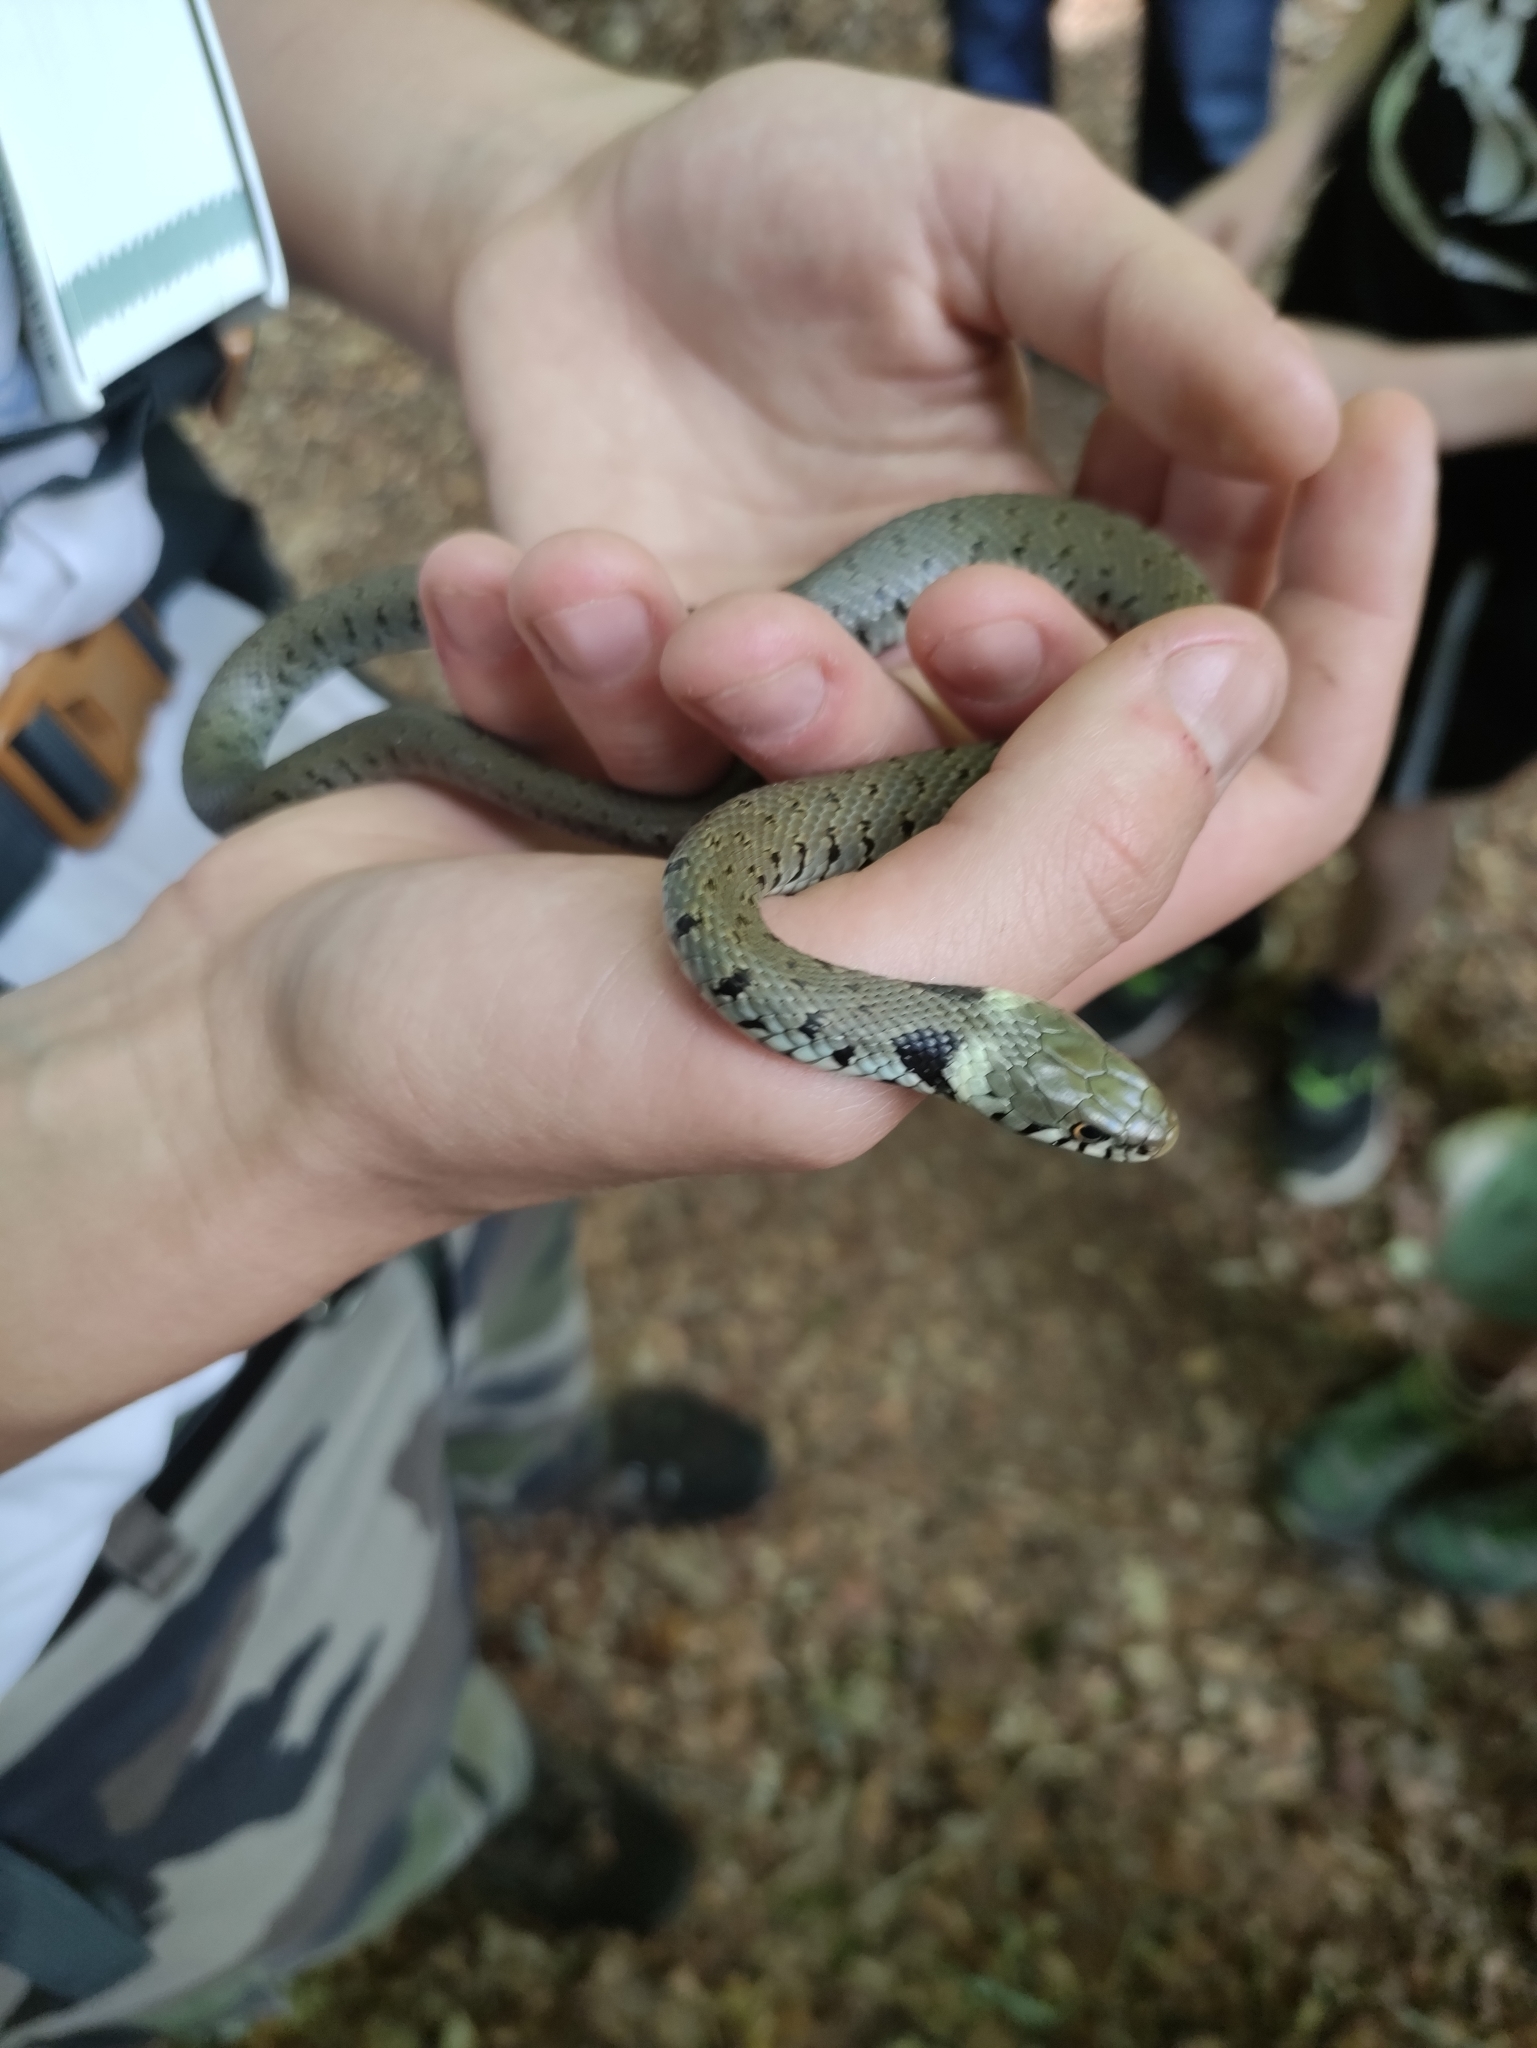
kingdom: Animalia
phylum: Chordata
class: Squamata
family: Colubridae
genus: Natrix
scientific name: Natrix helvetica
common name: Banded grass snake
